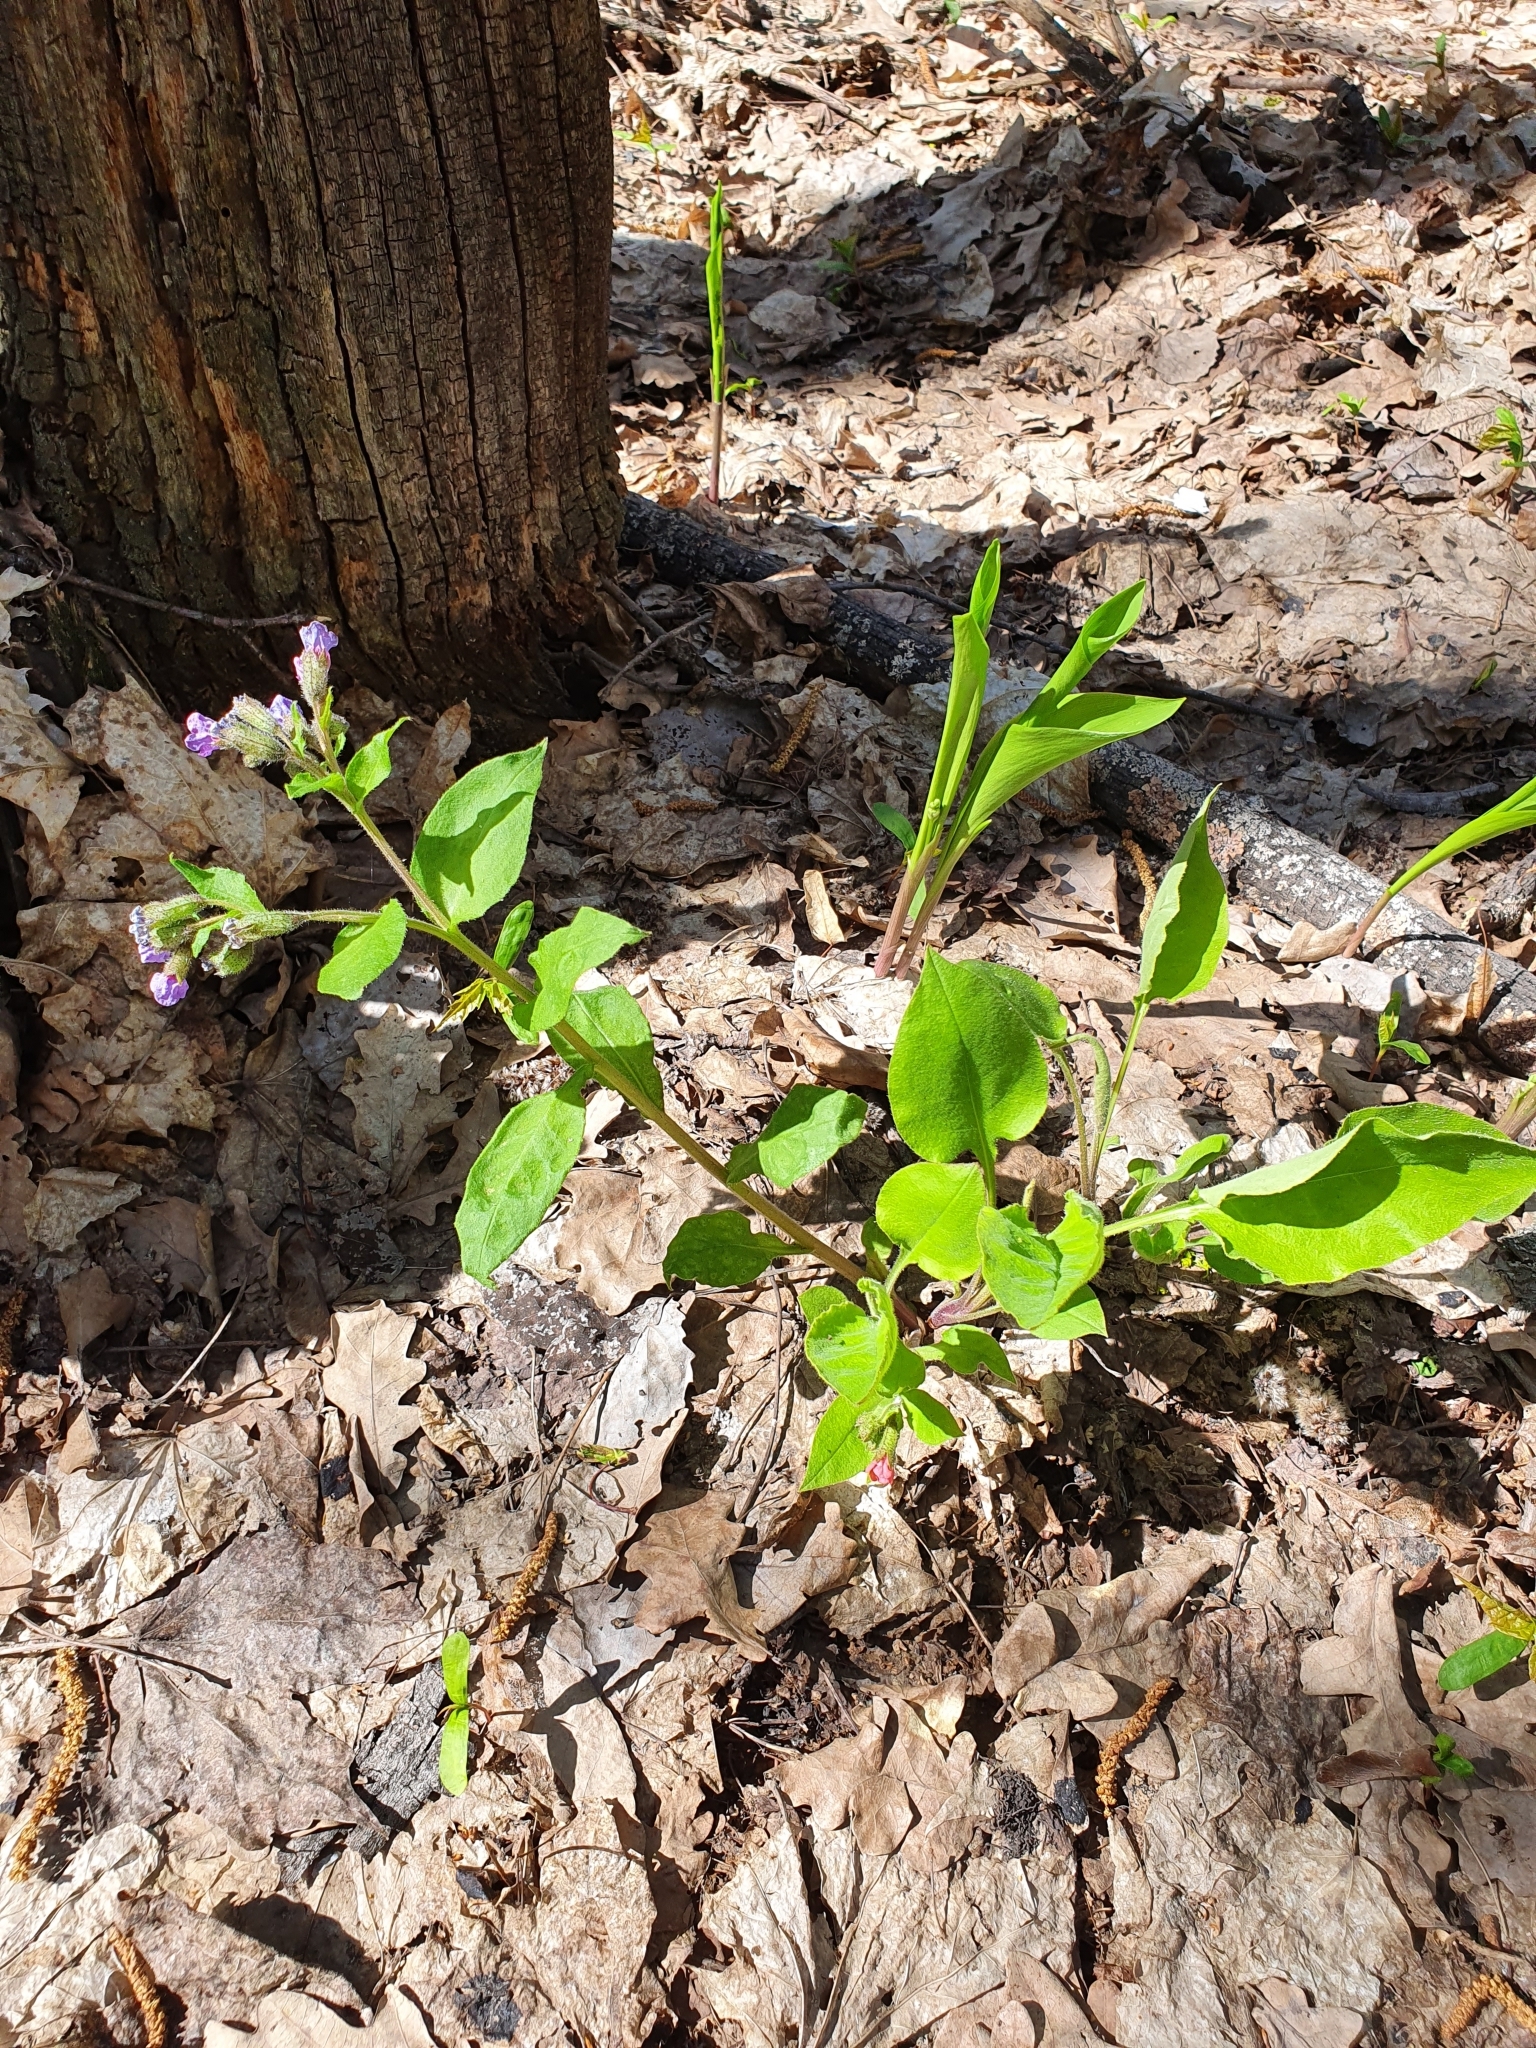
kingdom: Plantae
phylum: Tracheophyta
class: Magnoliopsida
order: Boraginales
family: Boraginaceae
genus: Pulmonaria
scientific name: Pulmonaria obscura
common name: Suffolk lungwort
